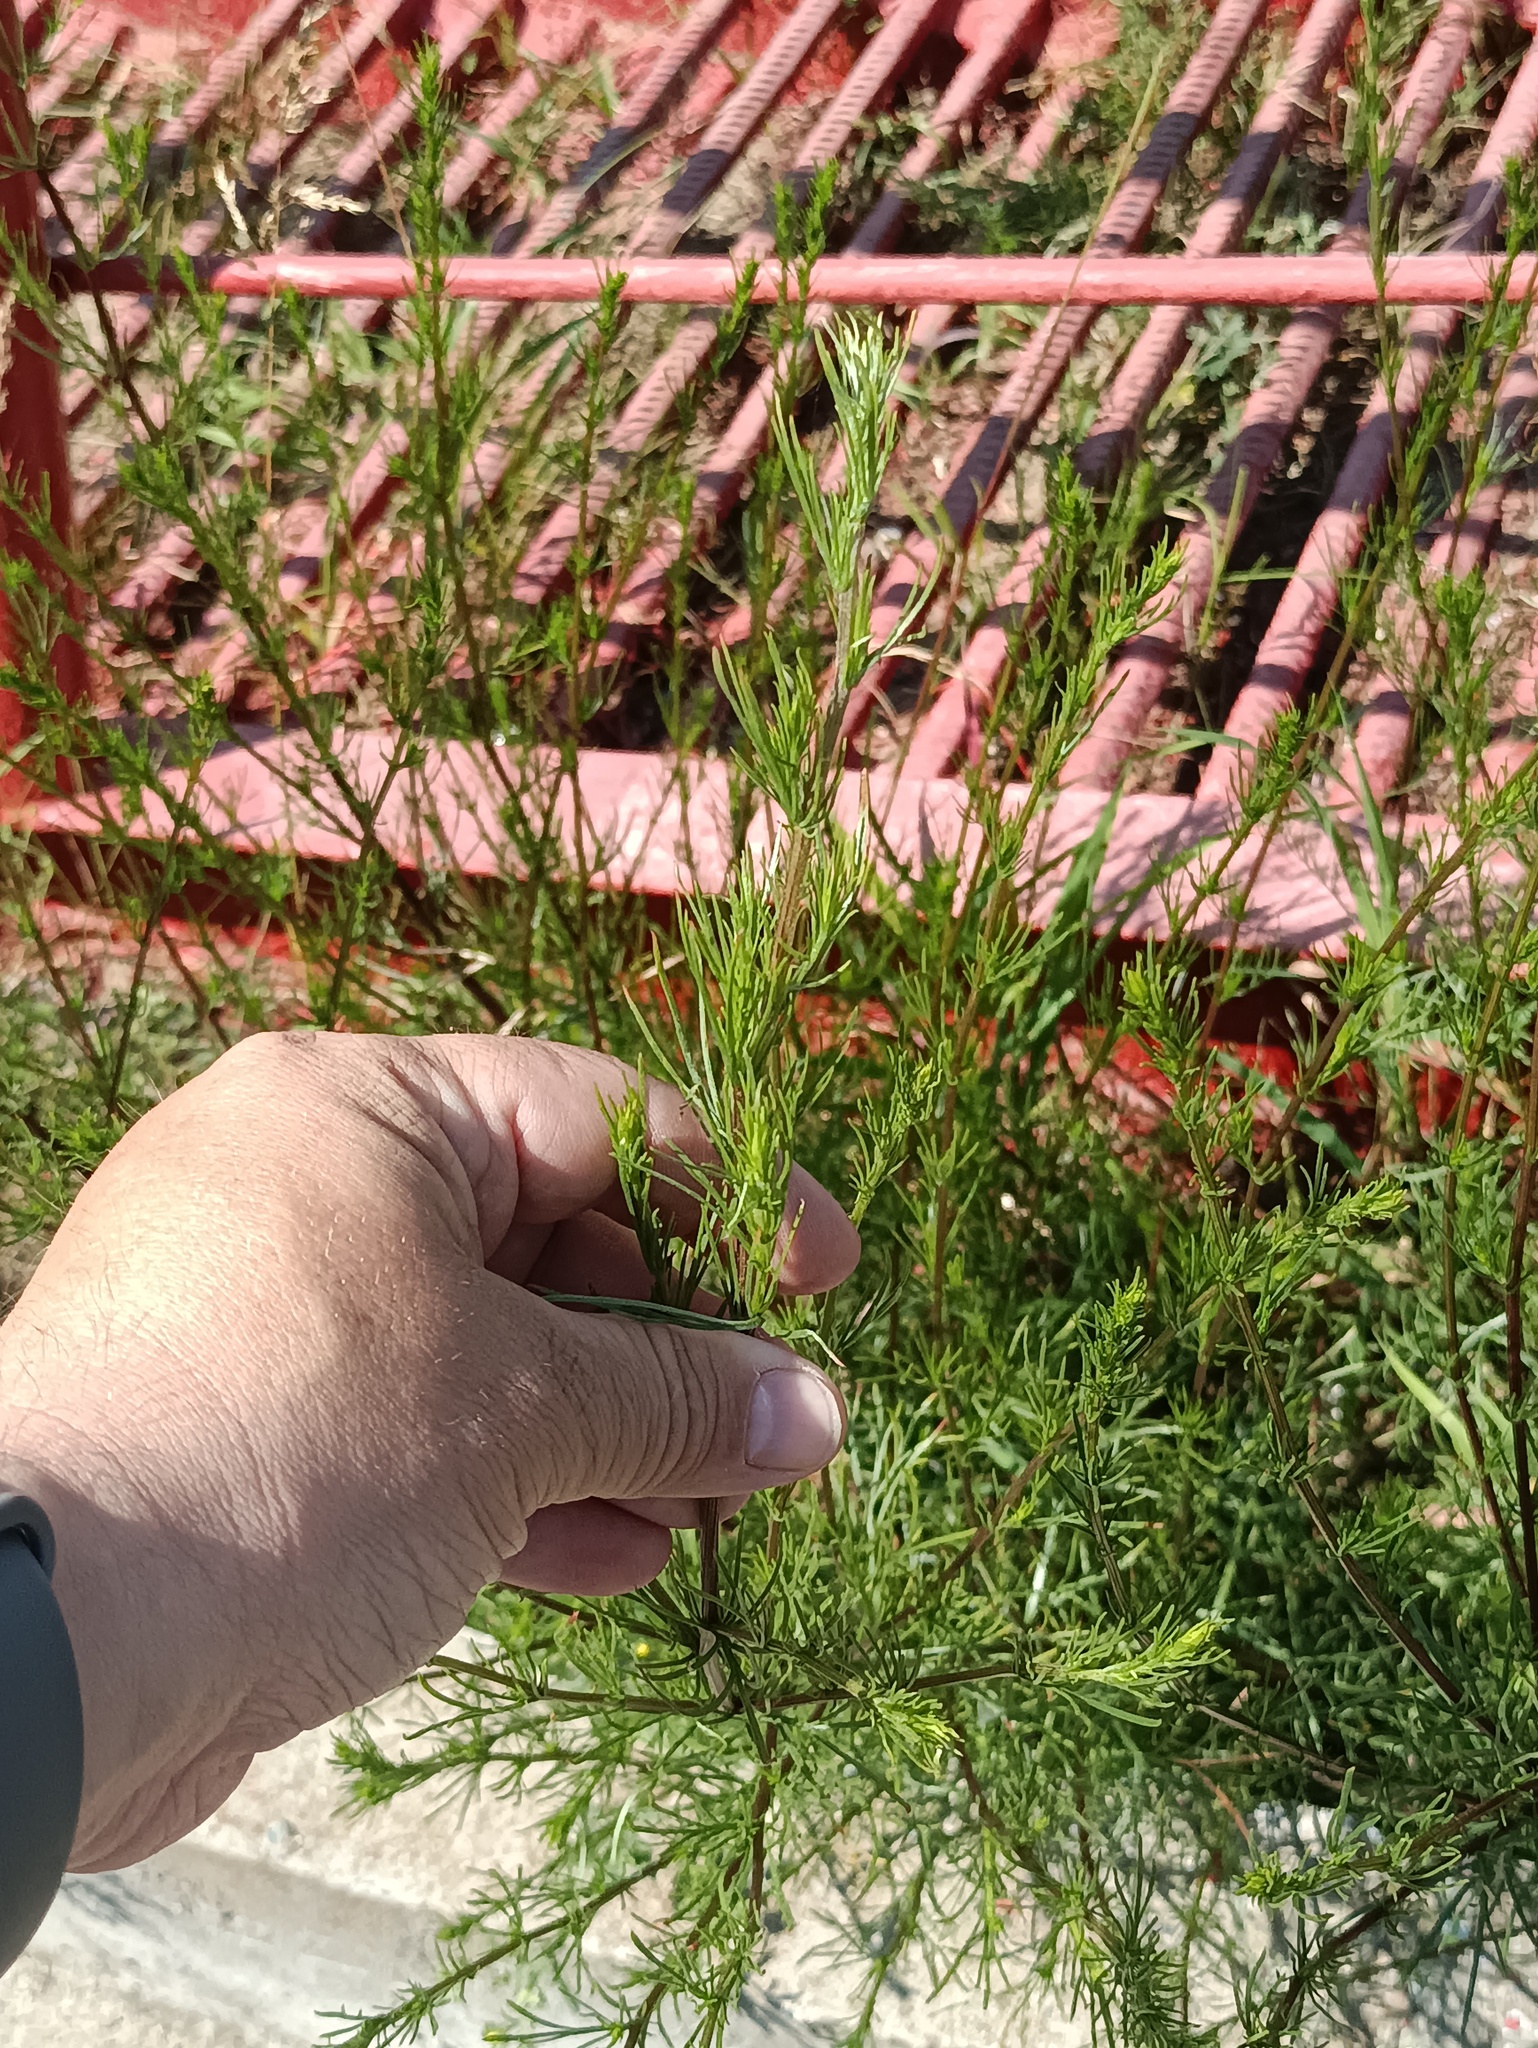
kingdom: Plantae
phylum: Tracheophyta
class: Magnoliopsida
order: Asterales
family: Asteraceae
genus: Artemisia
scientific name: Artemisia campestris
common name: Field wormwood
